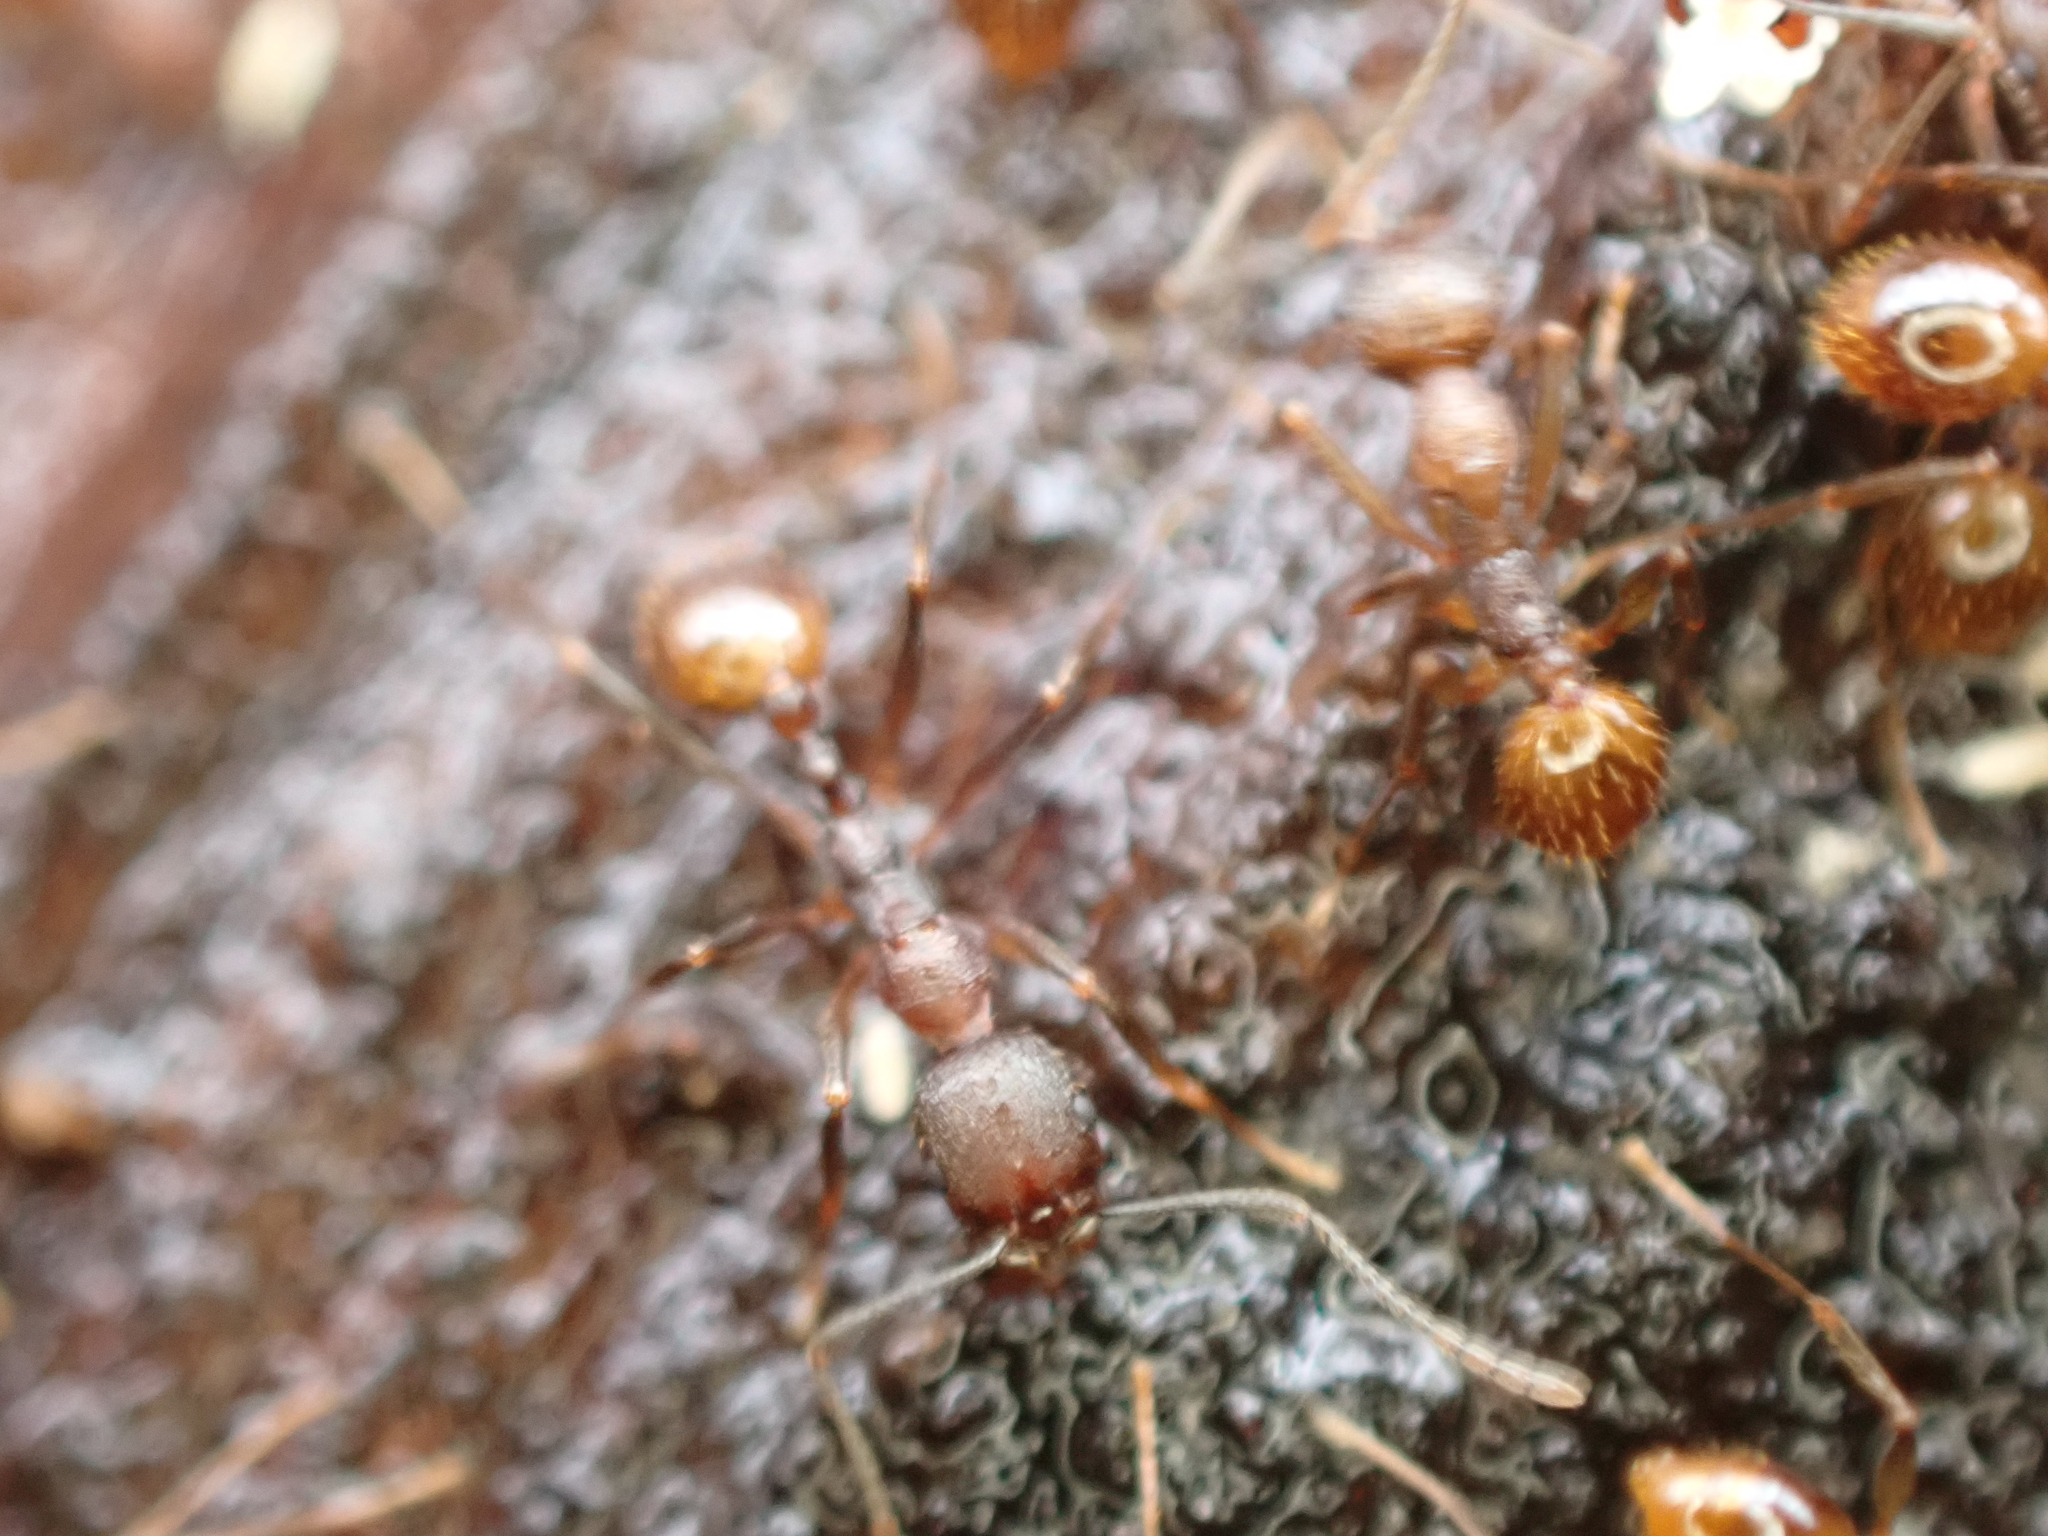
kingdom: Animalia
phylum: Arthropoda
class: Insecta
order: Hymenoptera
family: Formicidae
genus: Aphaenogaster
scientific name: Aphaenogaster fulva
